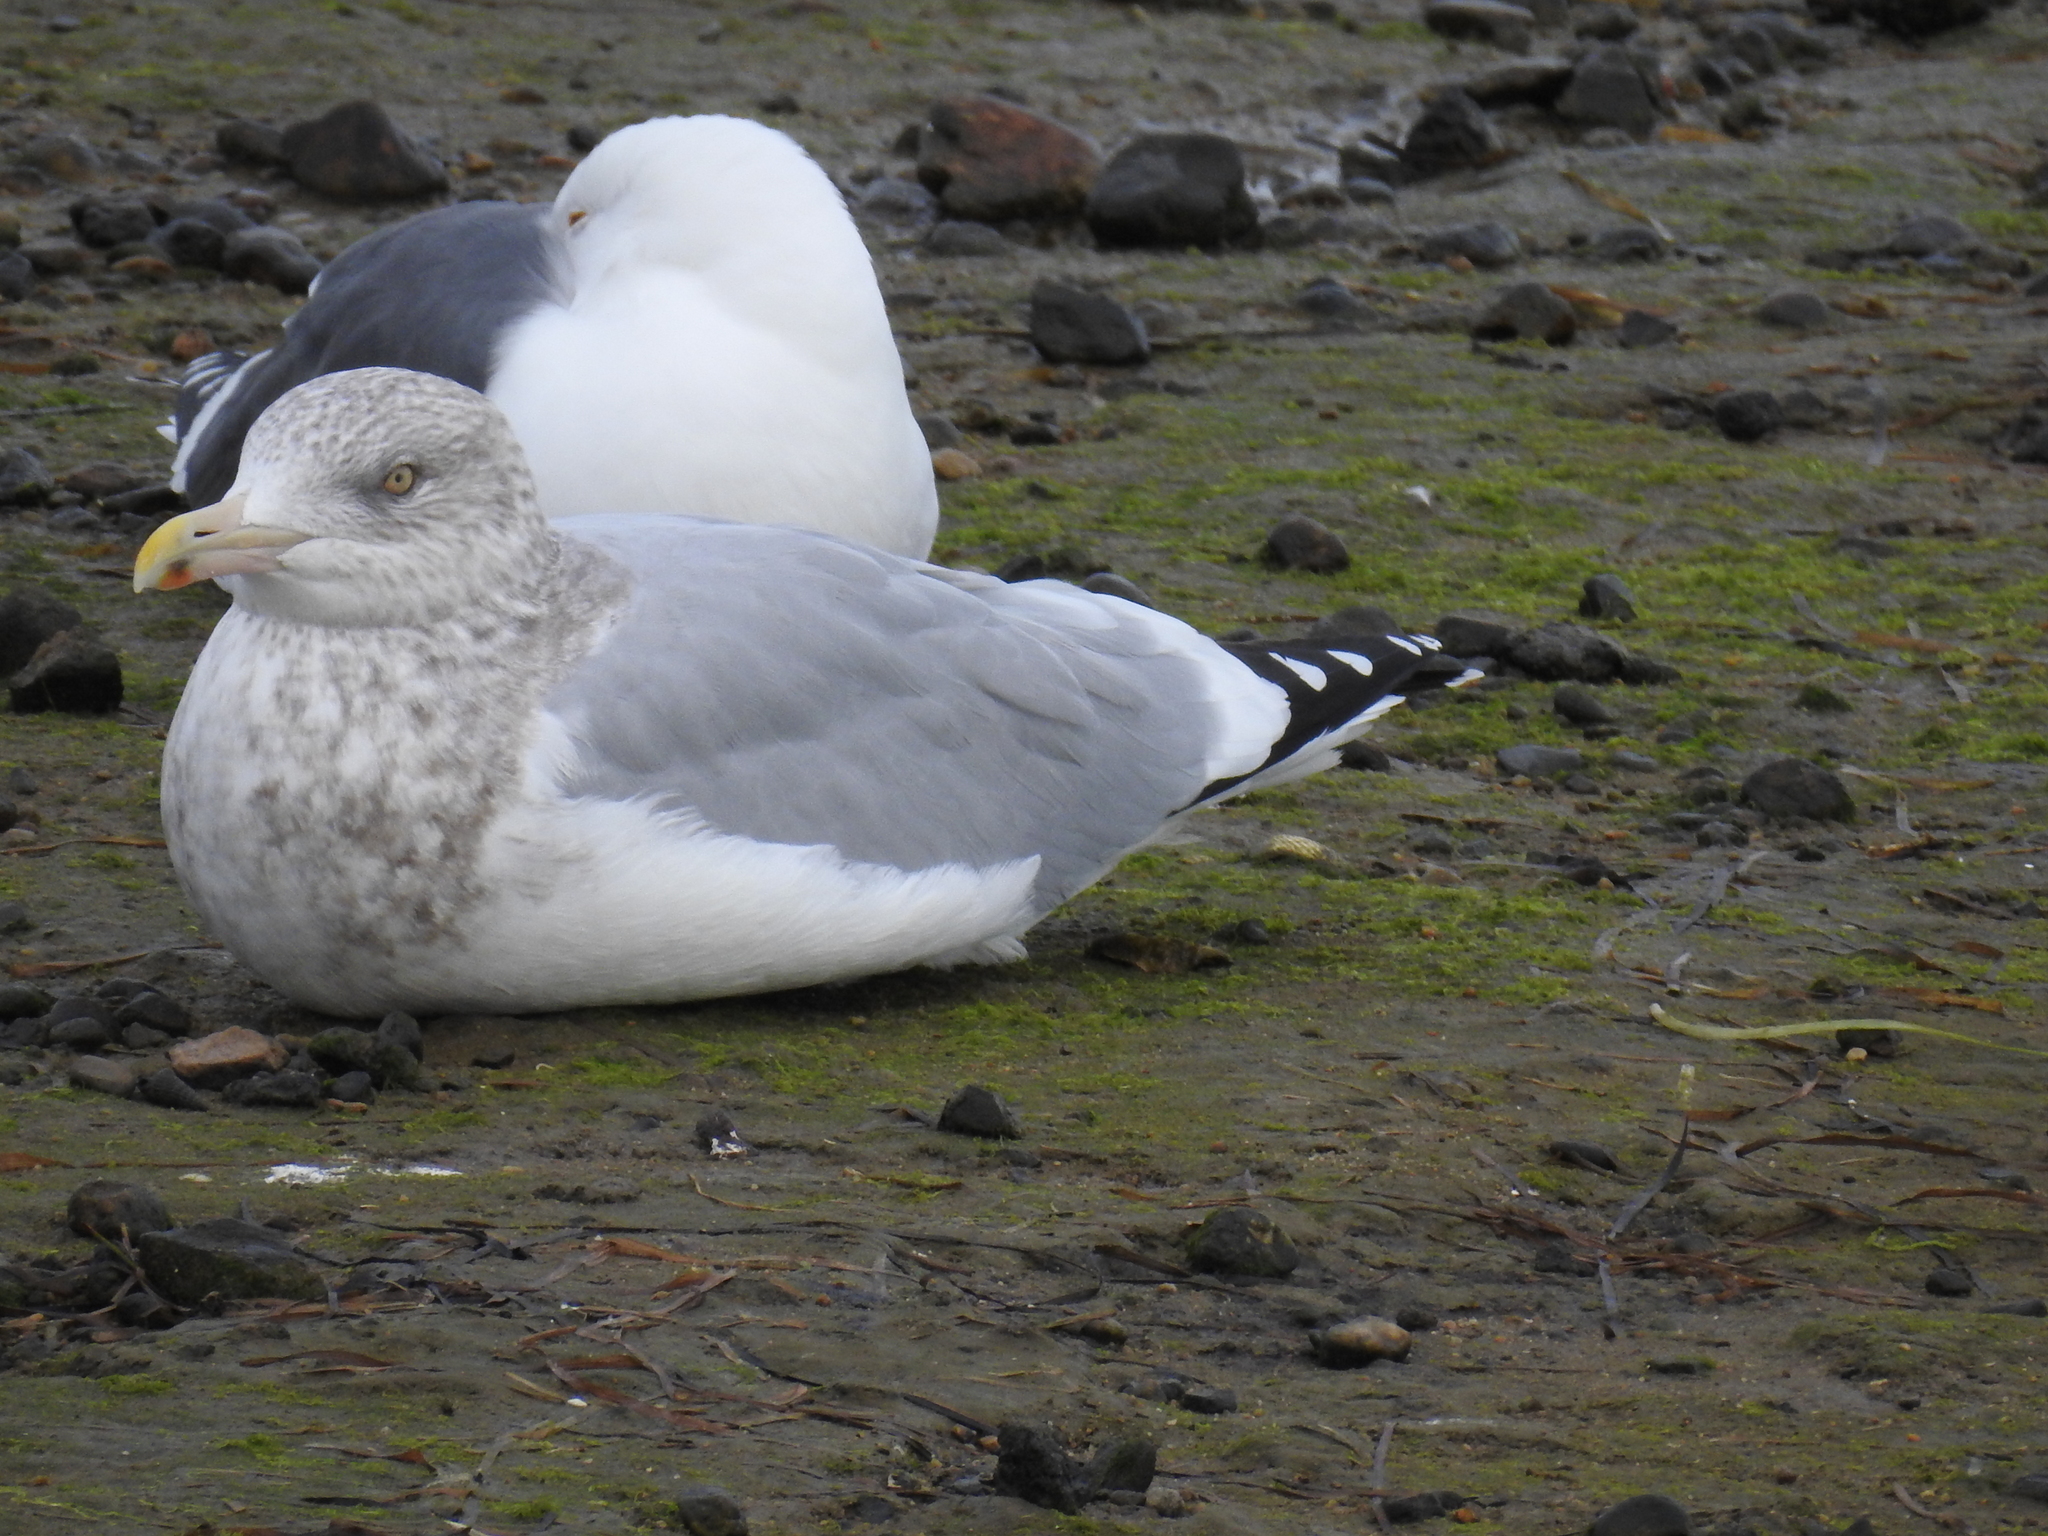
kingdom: Animalia
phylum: Chordata
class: Aves
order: Charadriiformes
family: Laridae
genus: Larus
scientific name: Larus argentatus
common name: Herring gull
